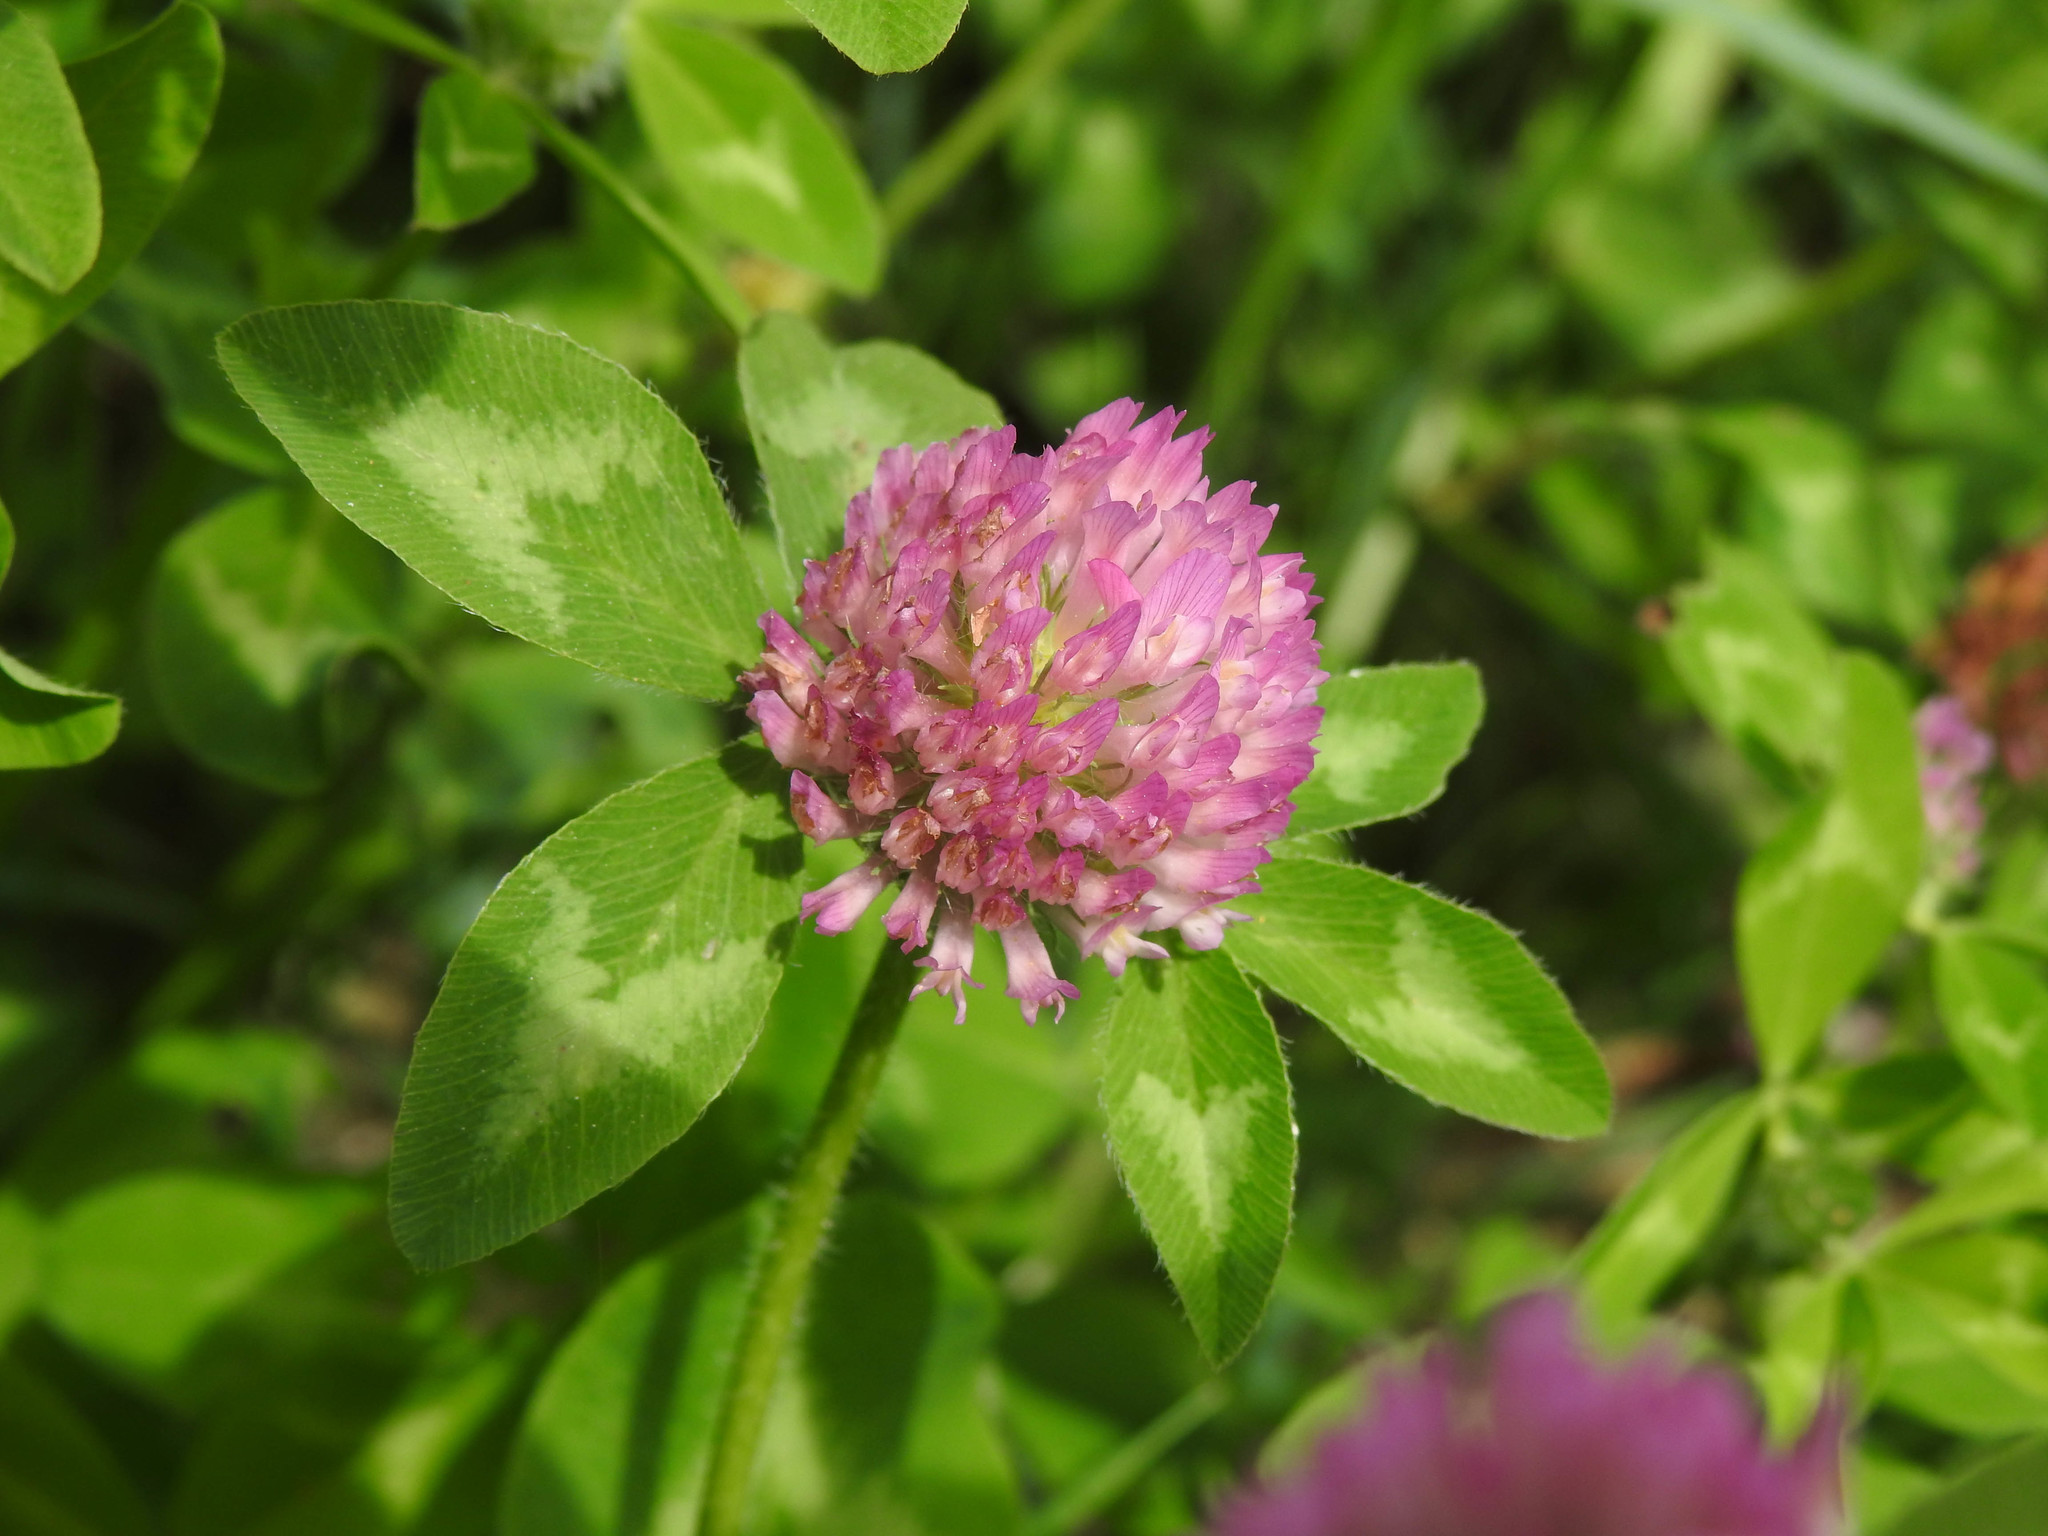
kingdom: Plantae
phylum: Tracheophyta
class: Magnoliopsida
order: Fabales
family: Fabaceae
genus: Trifolium
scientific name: Trifolium pratense
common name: Red clover
